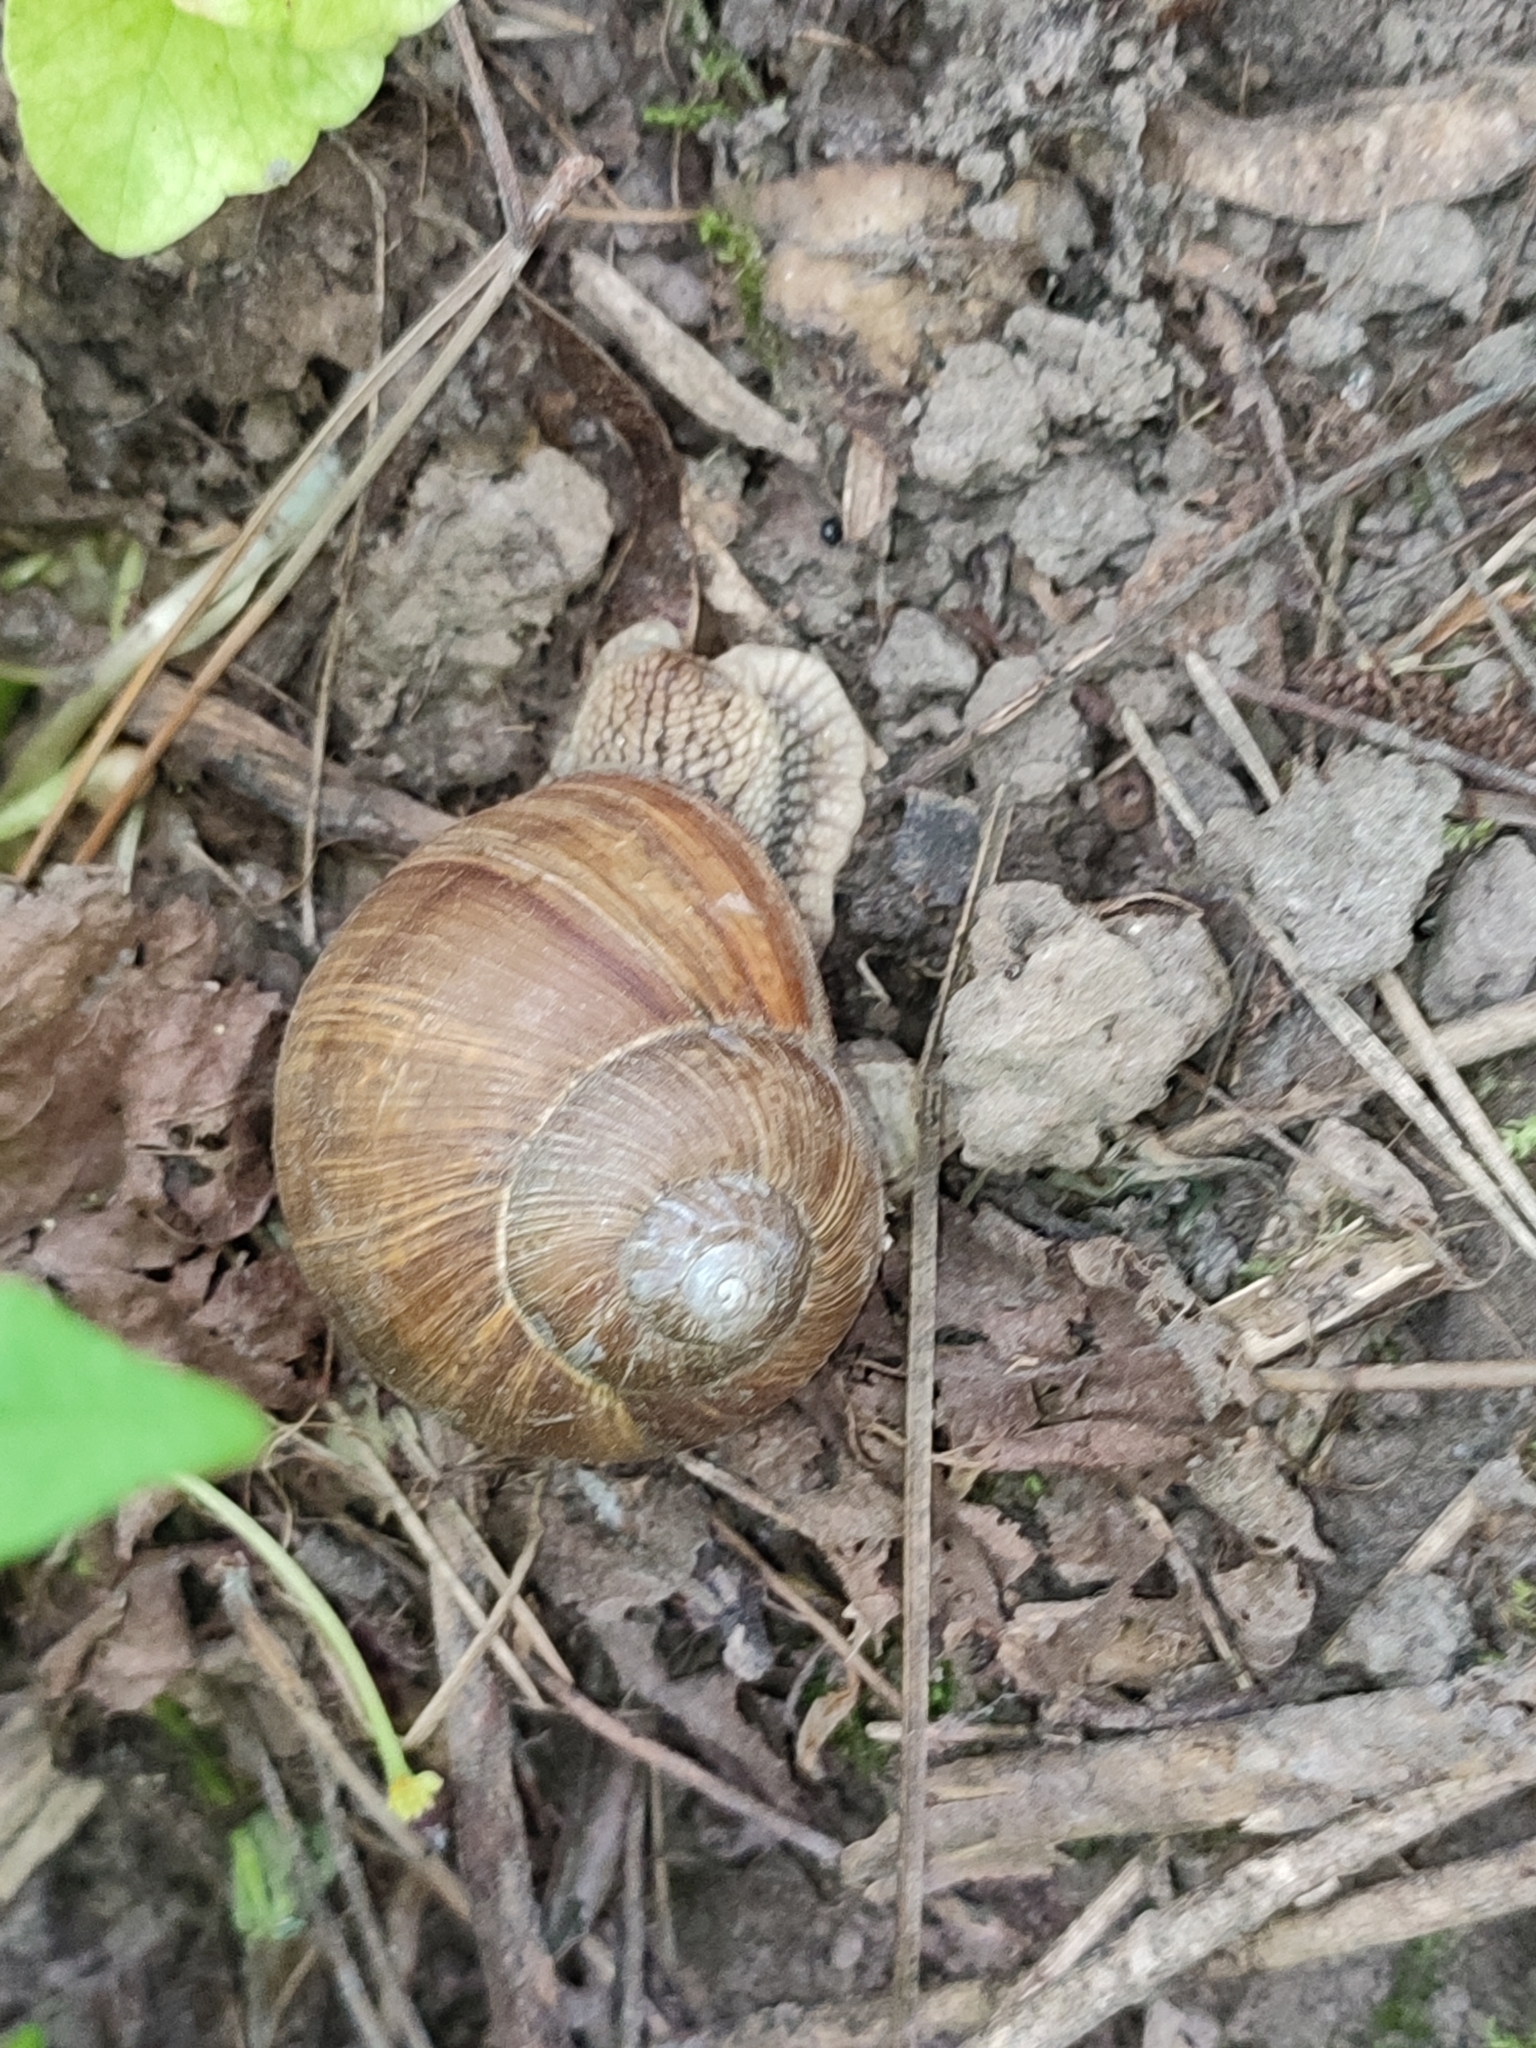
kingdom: Animalia
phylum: Mollusca
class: Gastropoda
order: Stylommatophora
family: Helicidae
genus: Helix
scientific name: Helix pomatia
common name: Roman snail
